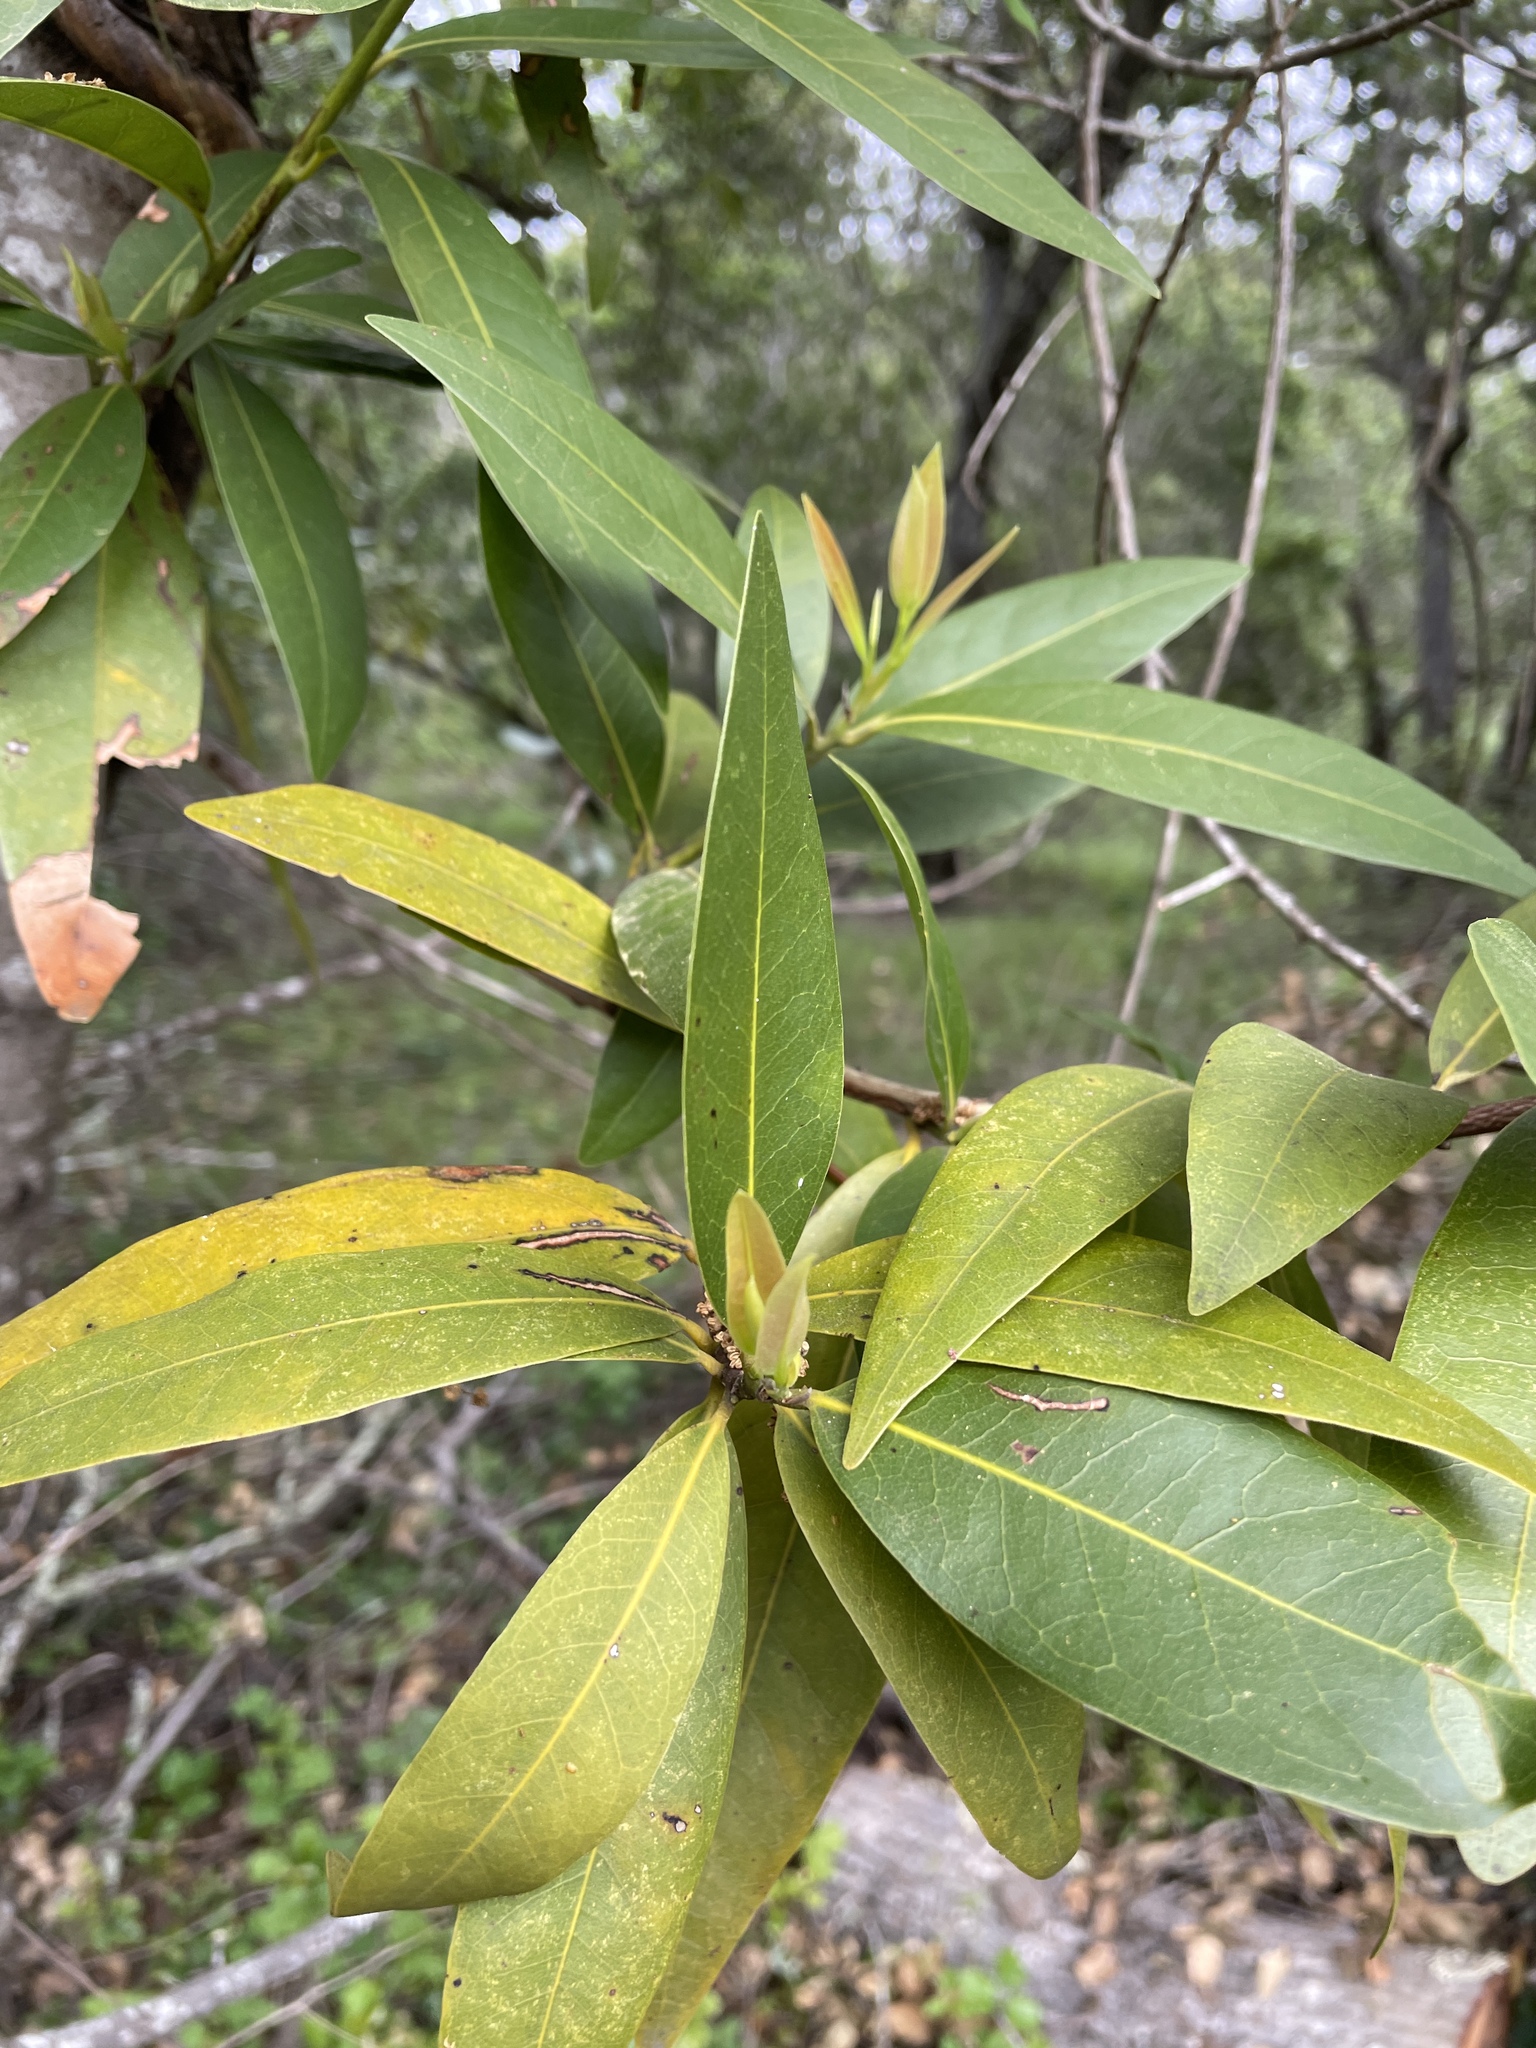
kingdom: Plantae
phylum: Tracheophyta
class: Magnoliopsida
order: Laurales
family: Lauraceae
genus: Umbellularia
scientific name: Umbellularia californica
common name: California bay
